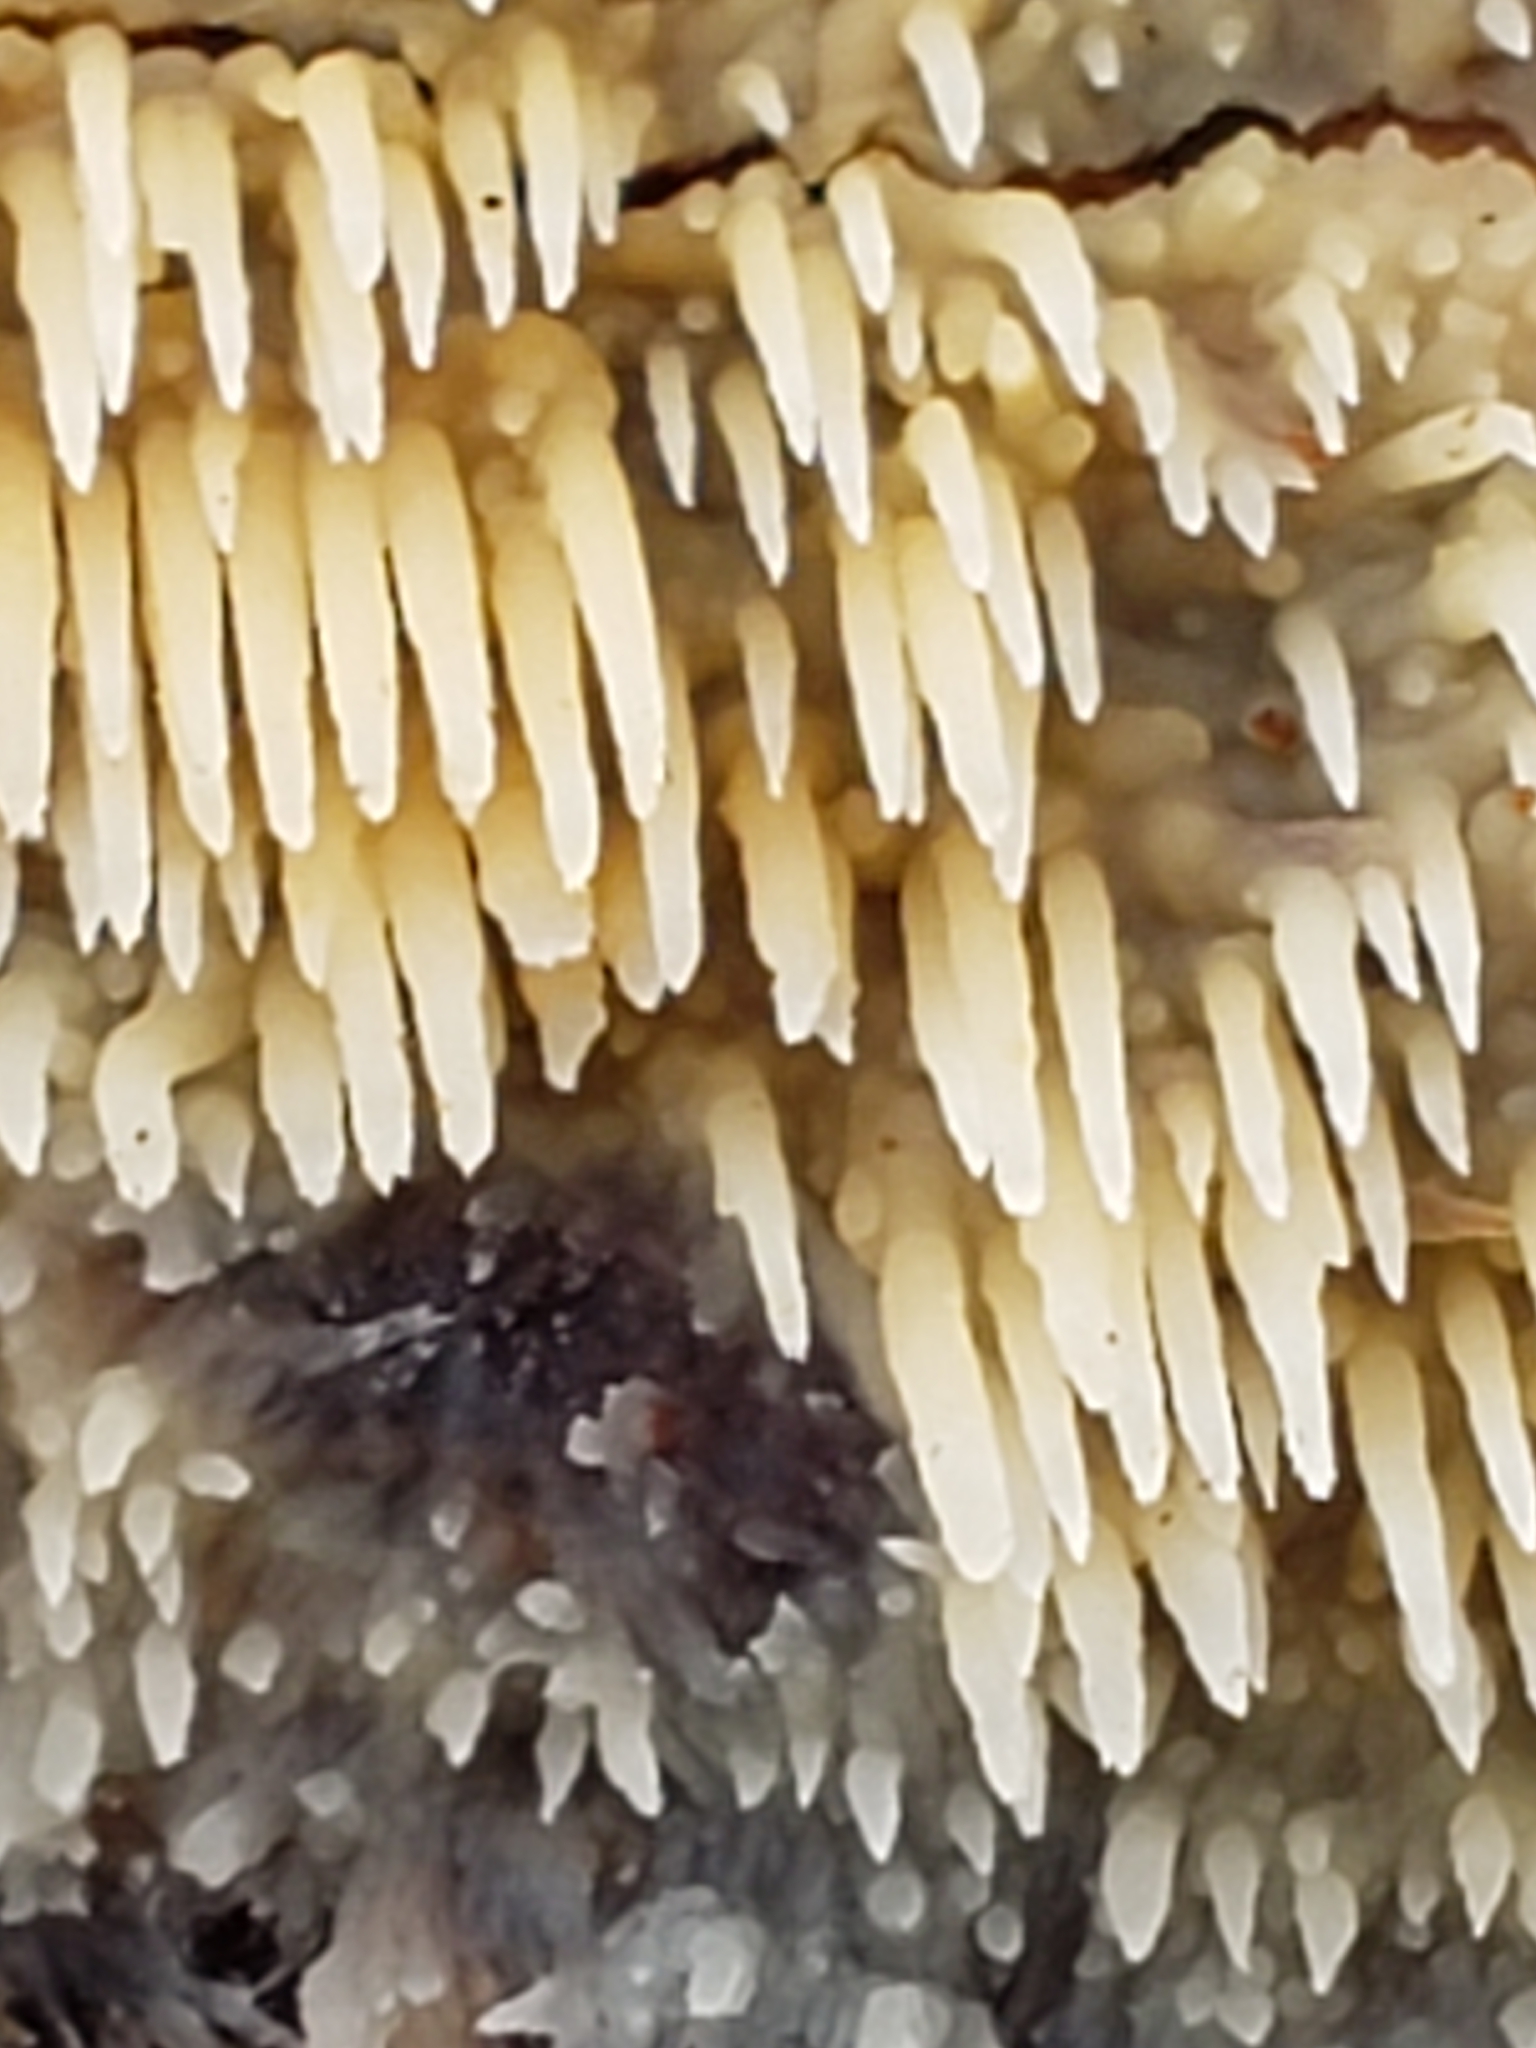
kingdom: Fungi
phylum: Basidiomycota
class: Agaricomycetes
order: Agaricales
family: Radulomycetaceae
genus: Radulomyces
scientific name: Radulomyces copelandii
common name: Asian beauty
